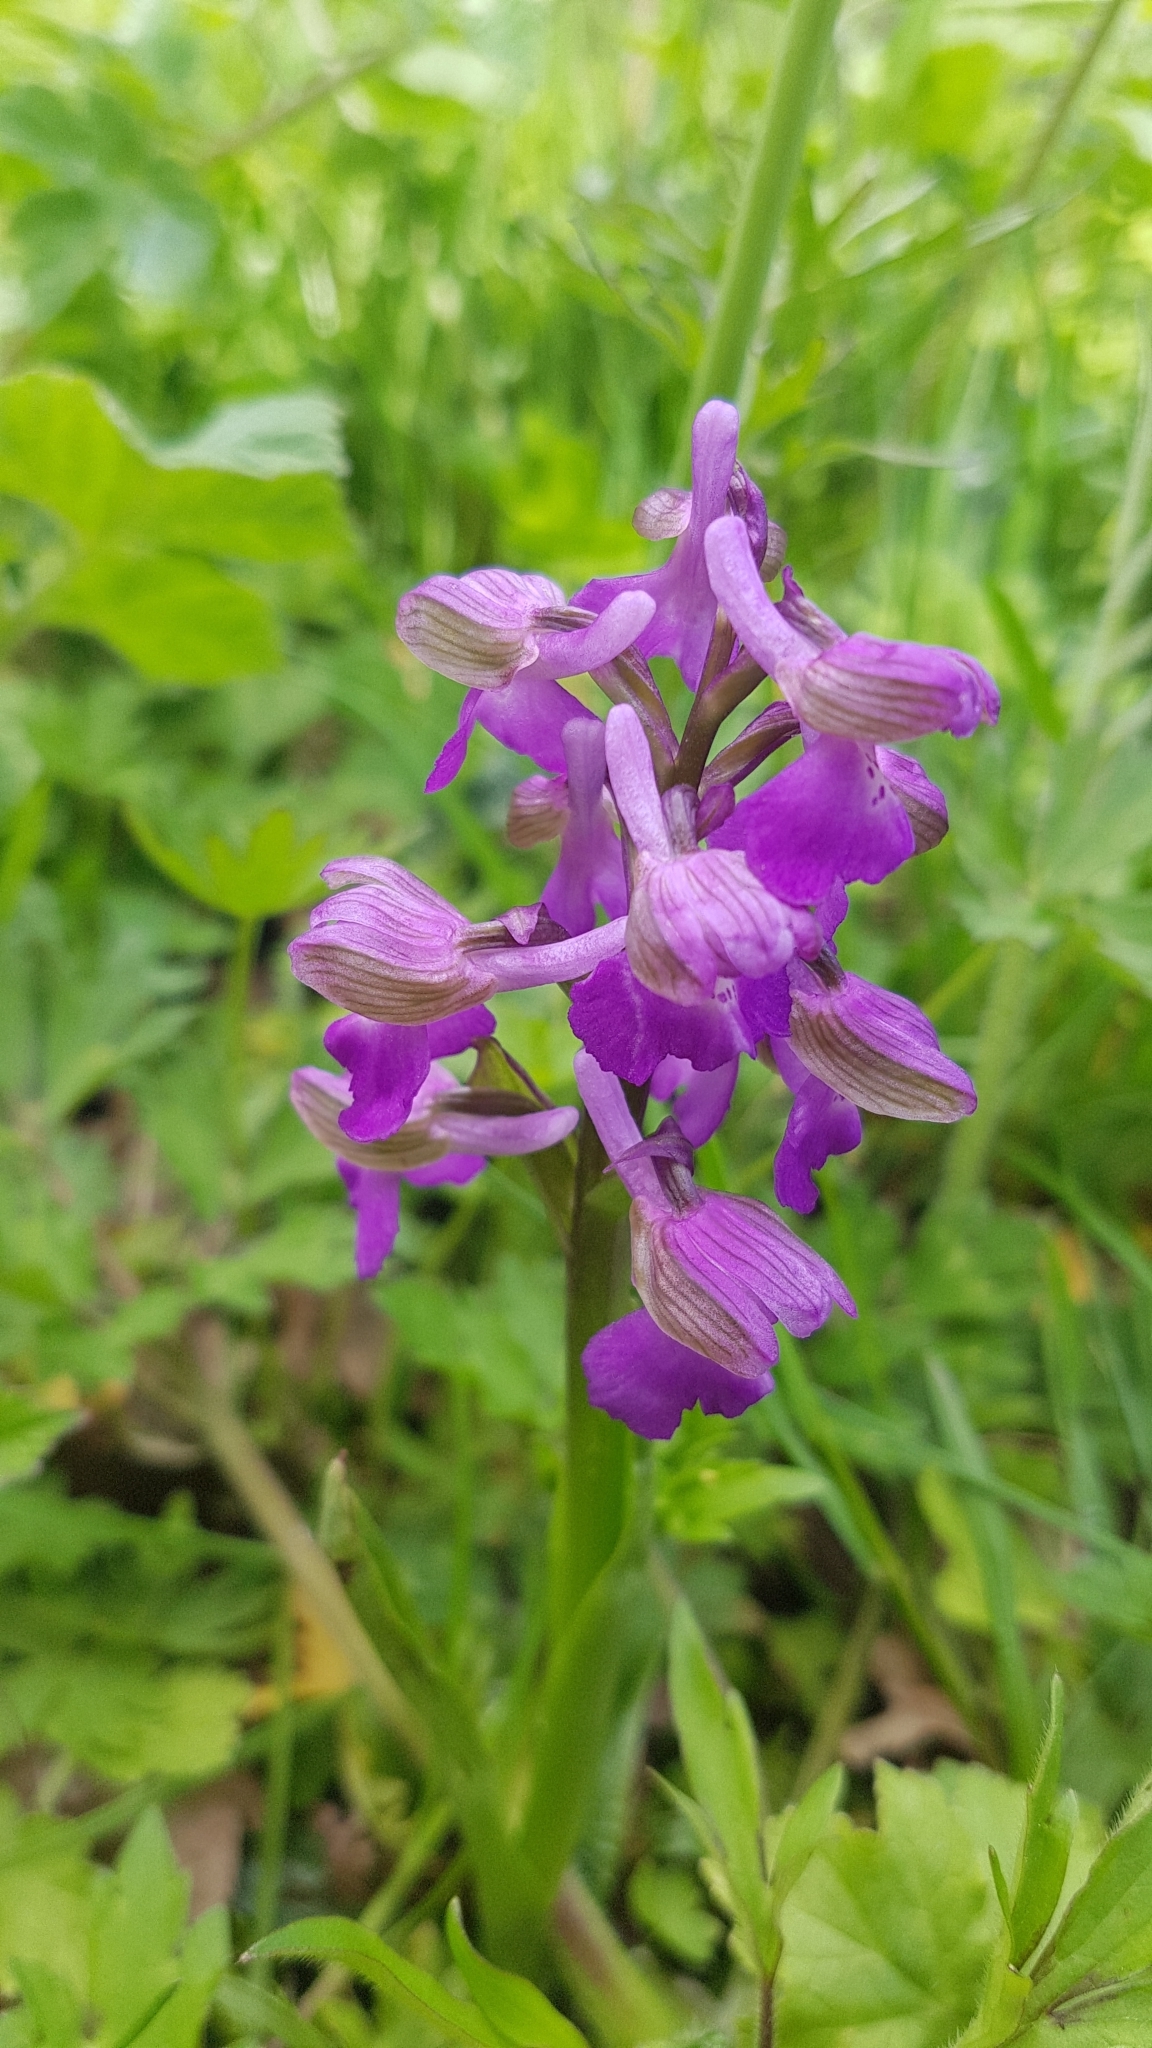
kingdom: Plantae
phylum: Tracheophyta
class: Liliopsida
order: Asparagales
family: Orchidaceae
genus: Anacamptis
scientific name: Anacamptis morio
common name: Green-winged orchid
